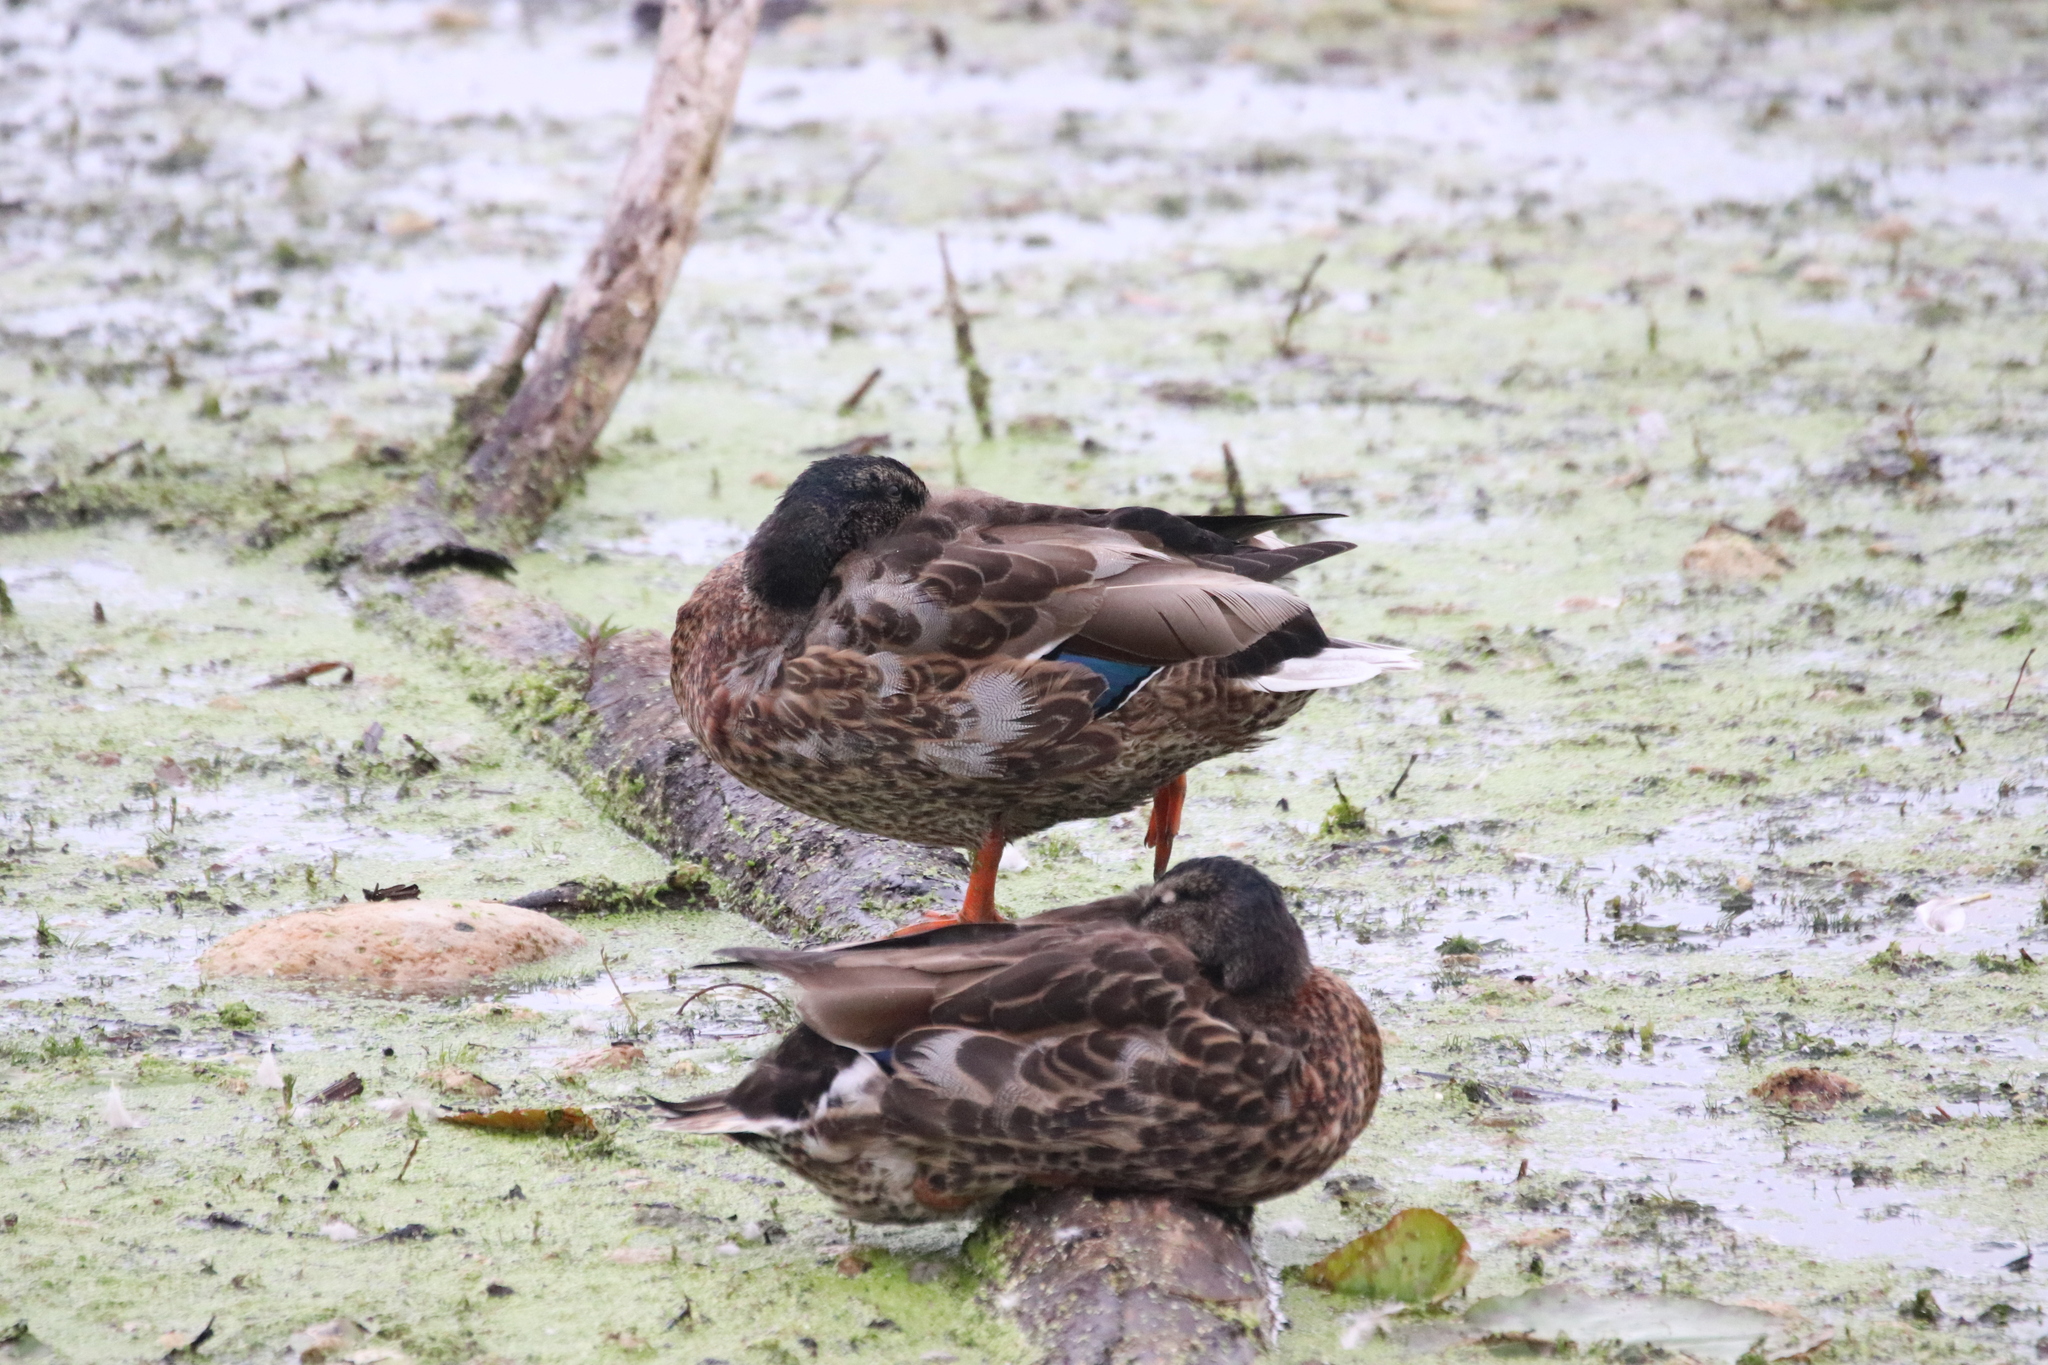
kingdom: Animalia
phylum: Chordata
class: Aves
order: Anseriformes
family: Anatidae
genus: Anas
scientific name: Anas
